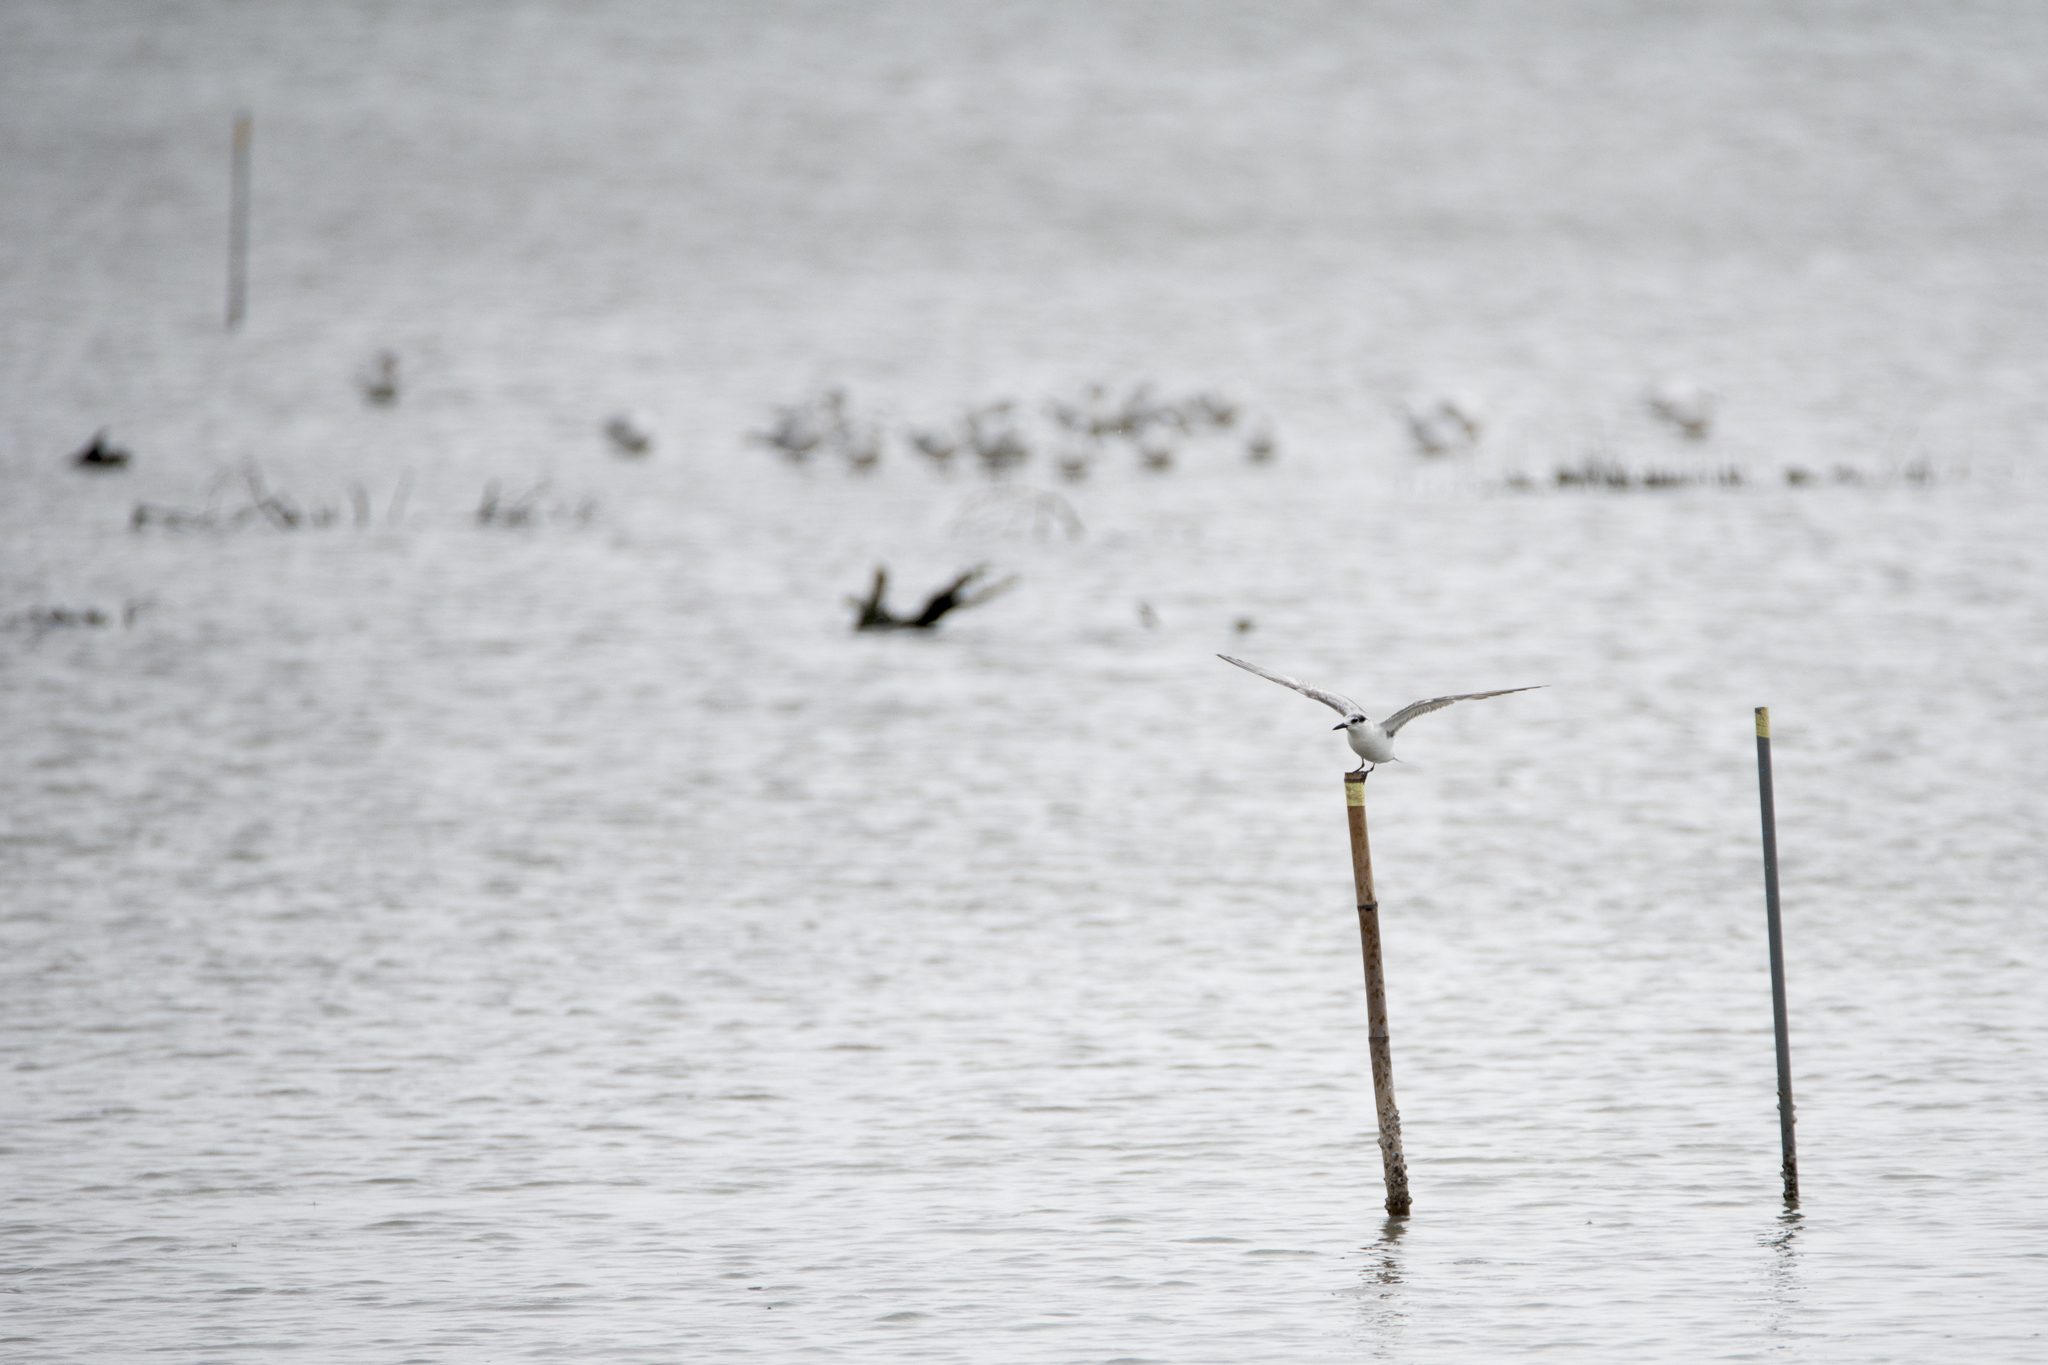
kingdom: Animalia
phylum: Chordata
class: Aves
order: Charadriiformes
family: Laridae
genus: Chlidonias
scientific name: Chlidonias hybrida
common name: Whiskered tern
